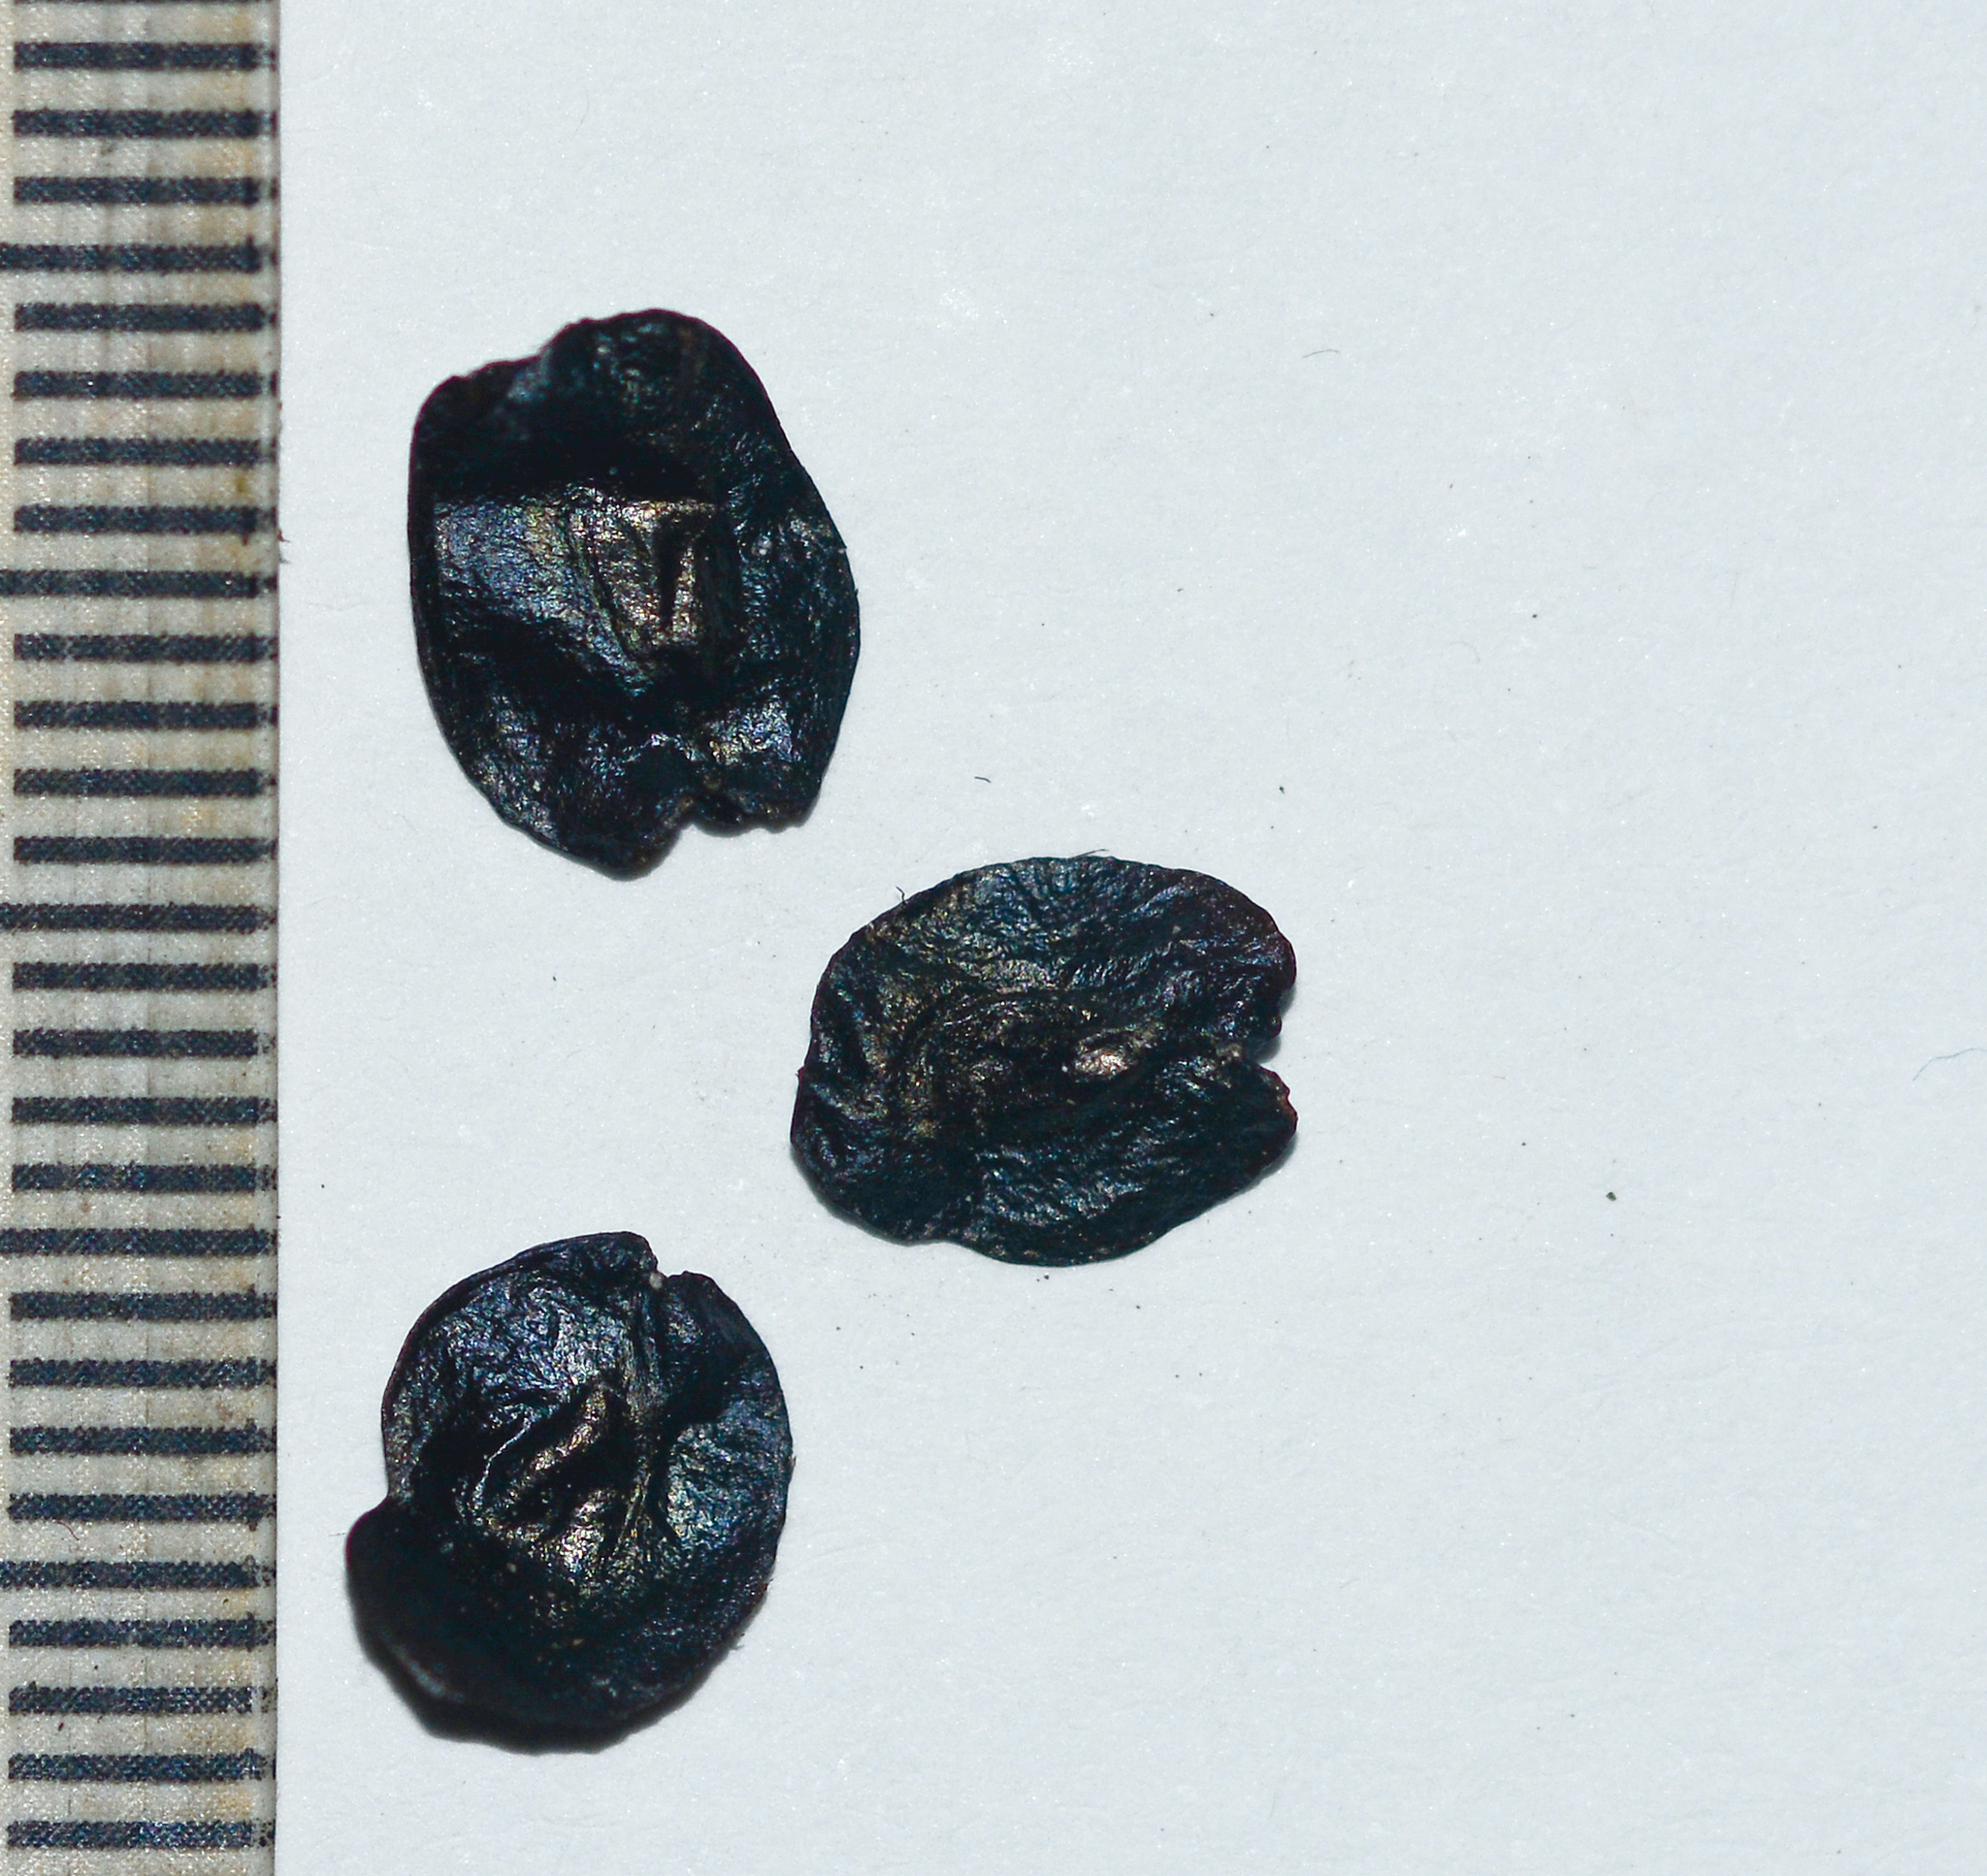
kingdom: Plantae
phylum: Tracheophyta
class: Liliopsida
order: Asparagales
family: Asparagaceae
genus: Drimia
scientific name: Drimia raogibikei
